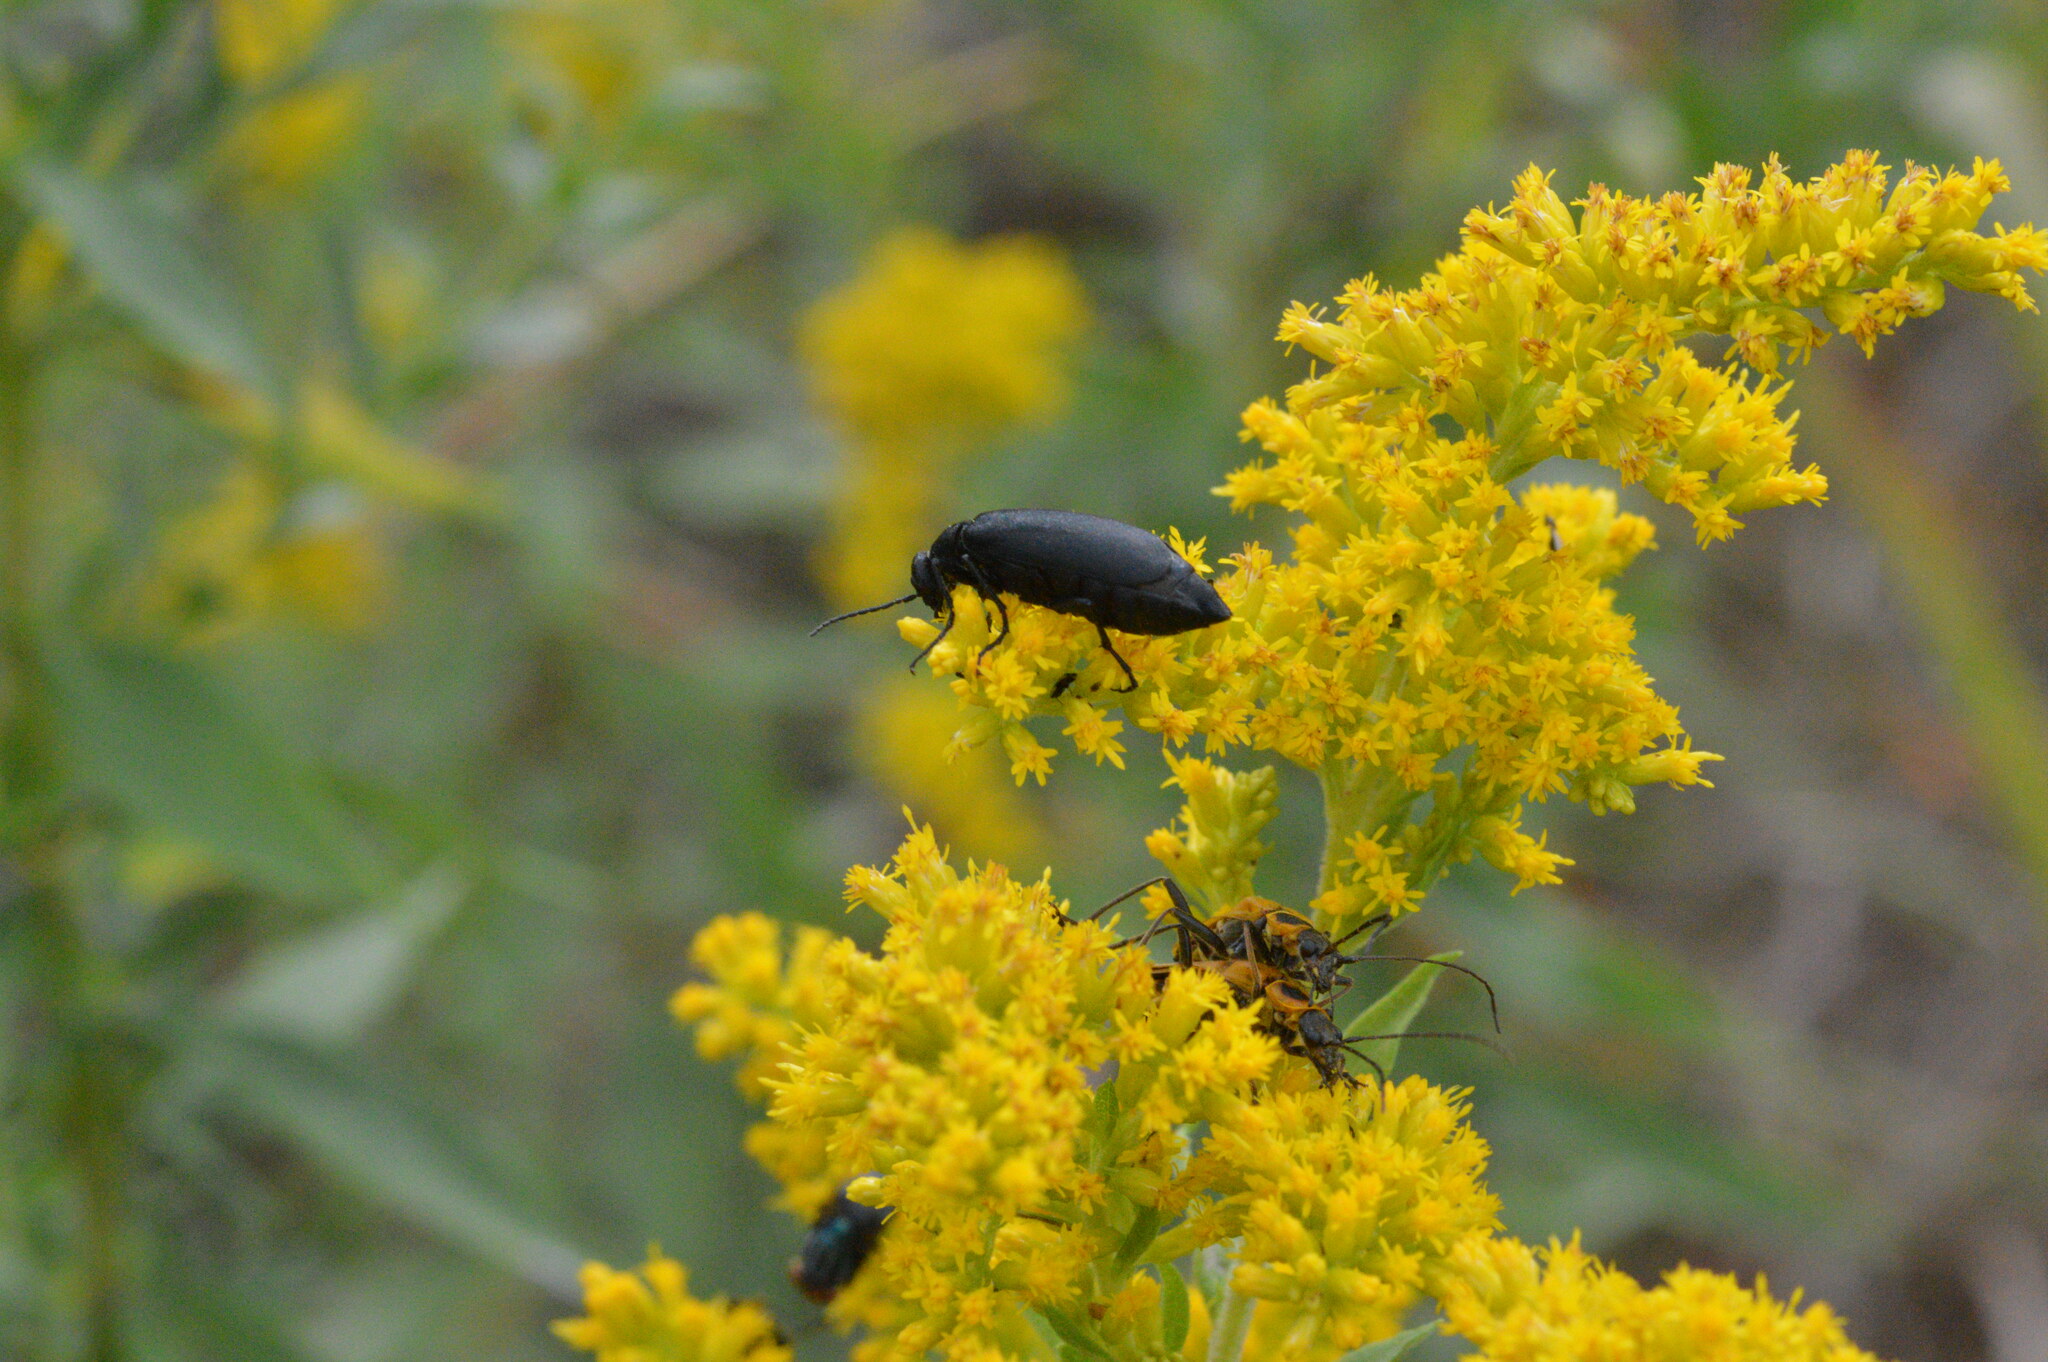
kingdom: Animalia
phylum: Arthropoda
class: Insecta
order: Coleoptera
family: Meloidae
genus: Epicauta
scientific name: Epicauta pensylvanica
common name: Black blister beetle
